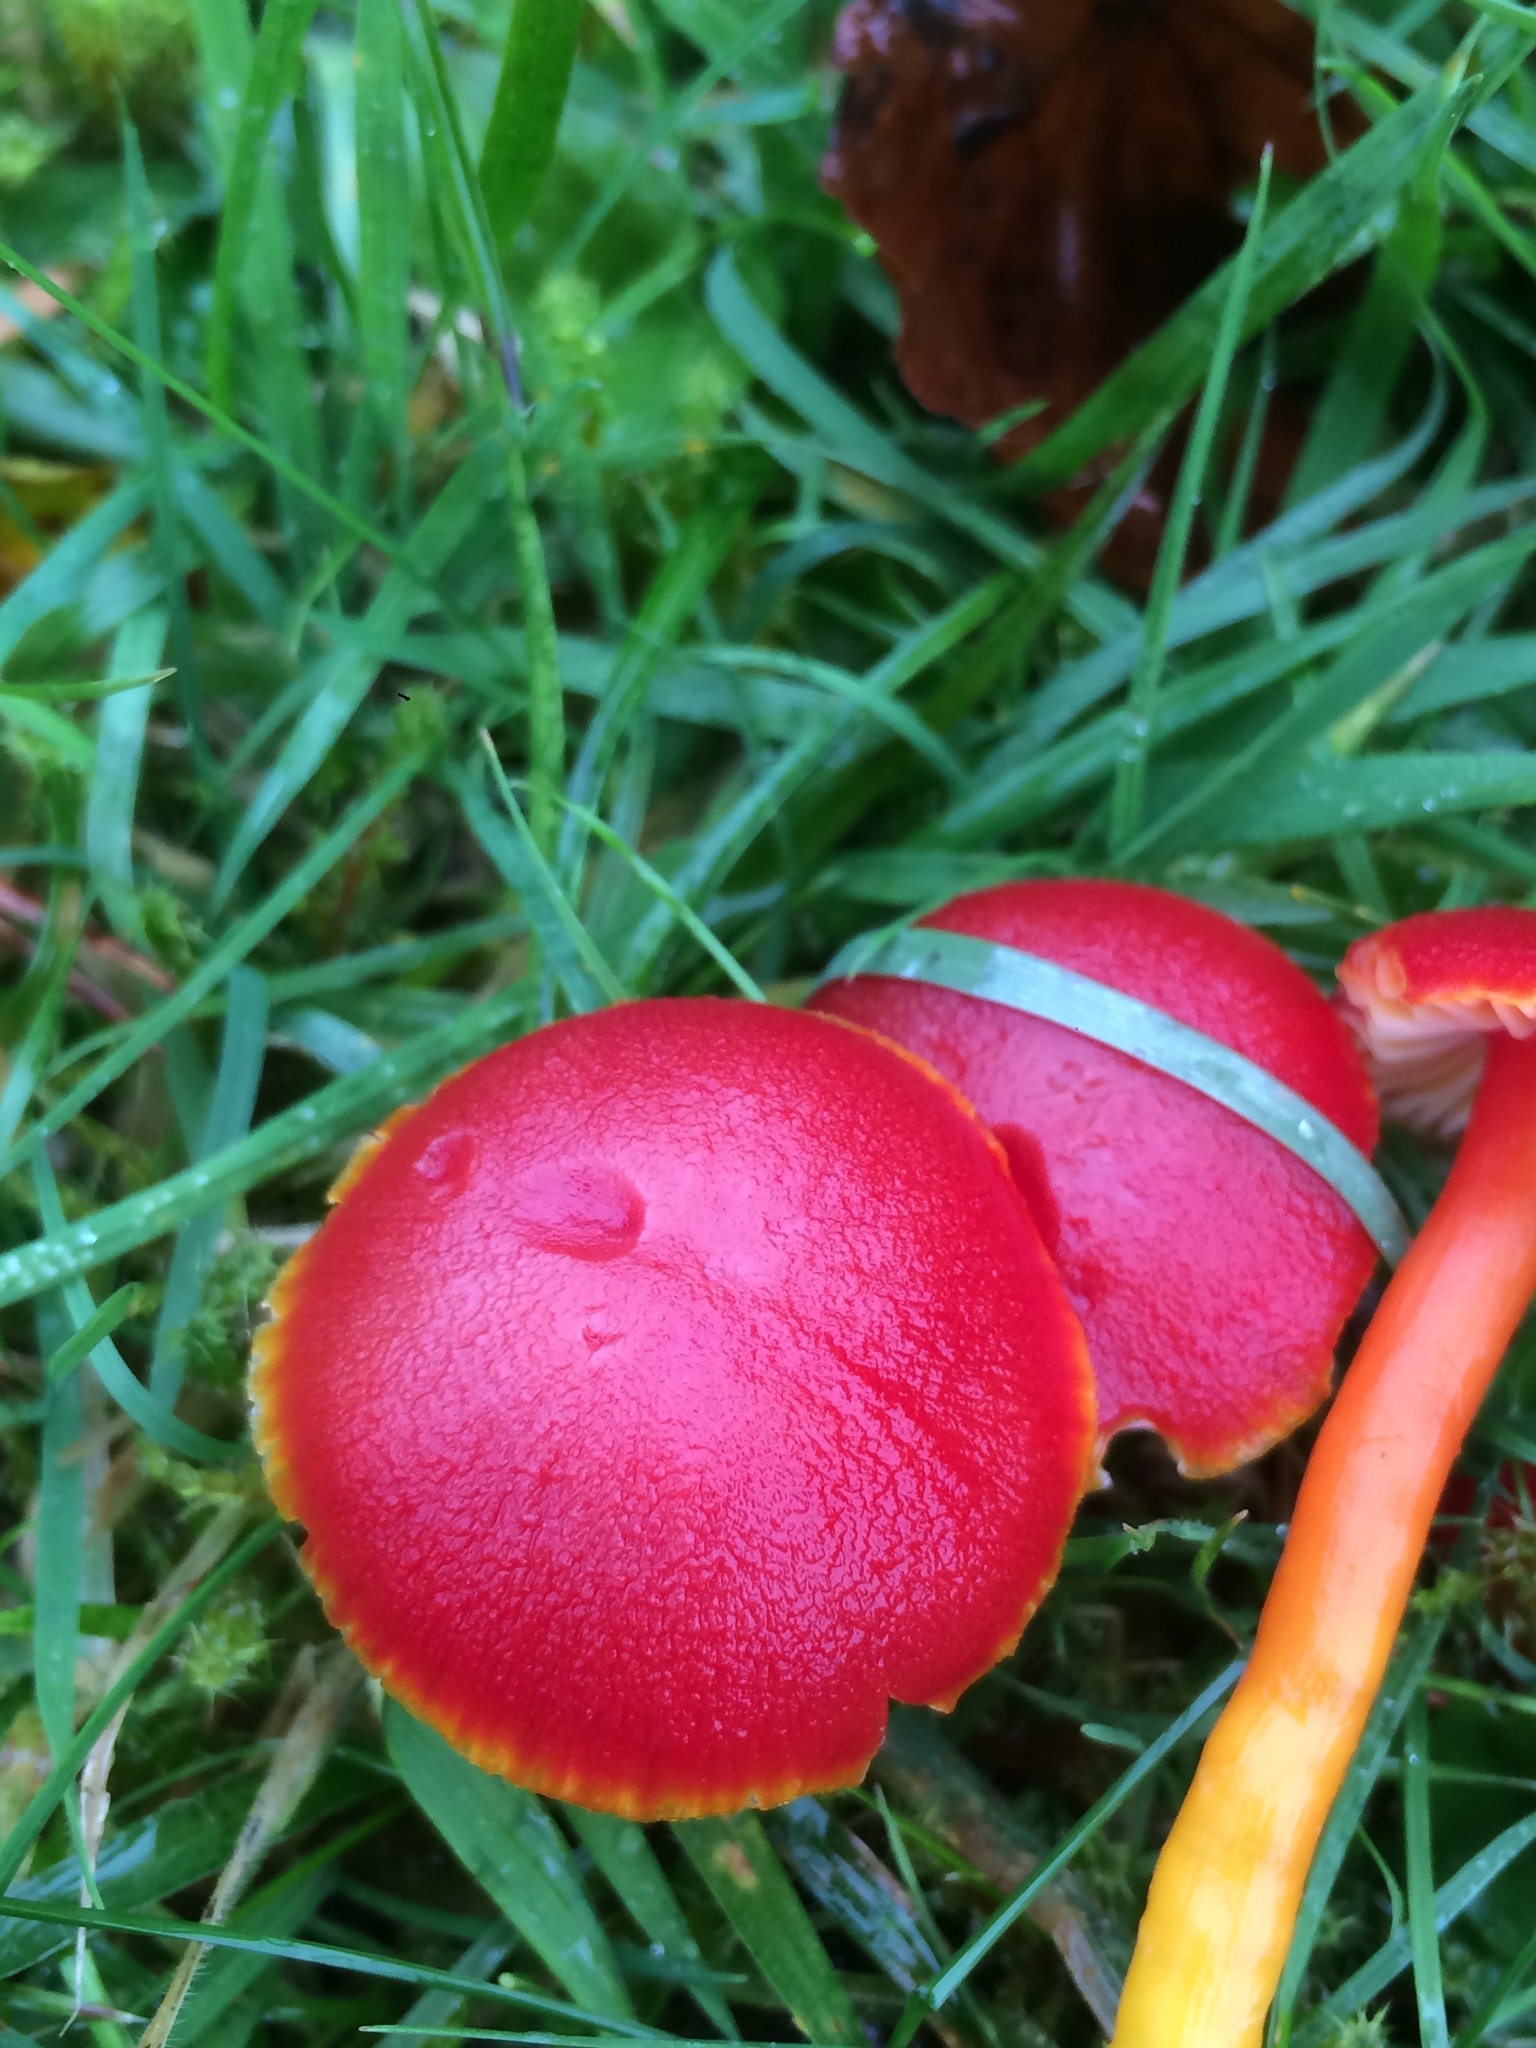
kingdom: Fungi
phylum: Basidiomycota
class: Agaricomycetes
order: Agaricales
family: Hygrophoraceae
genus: Hygrocybe
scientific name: Hygrocybe coccinea
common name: Scarlet hood
